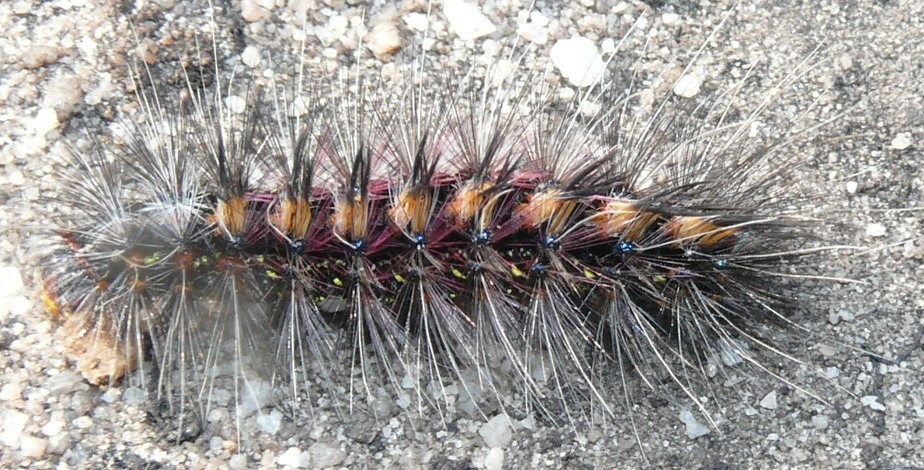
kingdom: Animalia
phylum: Arthropoda
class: Insecta
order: Lepidoptera
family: Erebidae
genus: Paralacydes
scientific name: Paralacydes vocula
